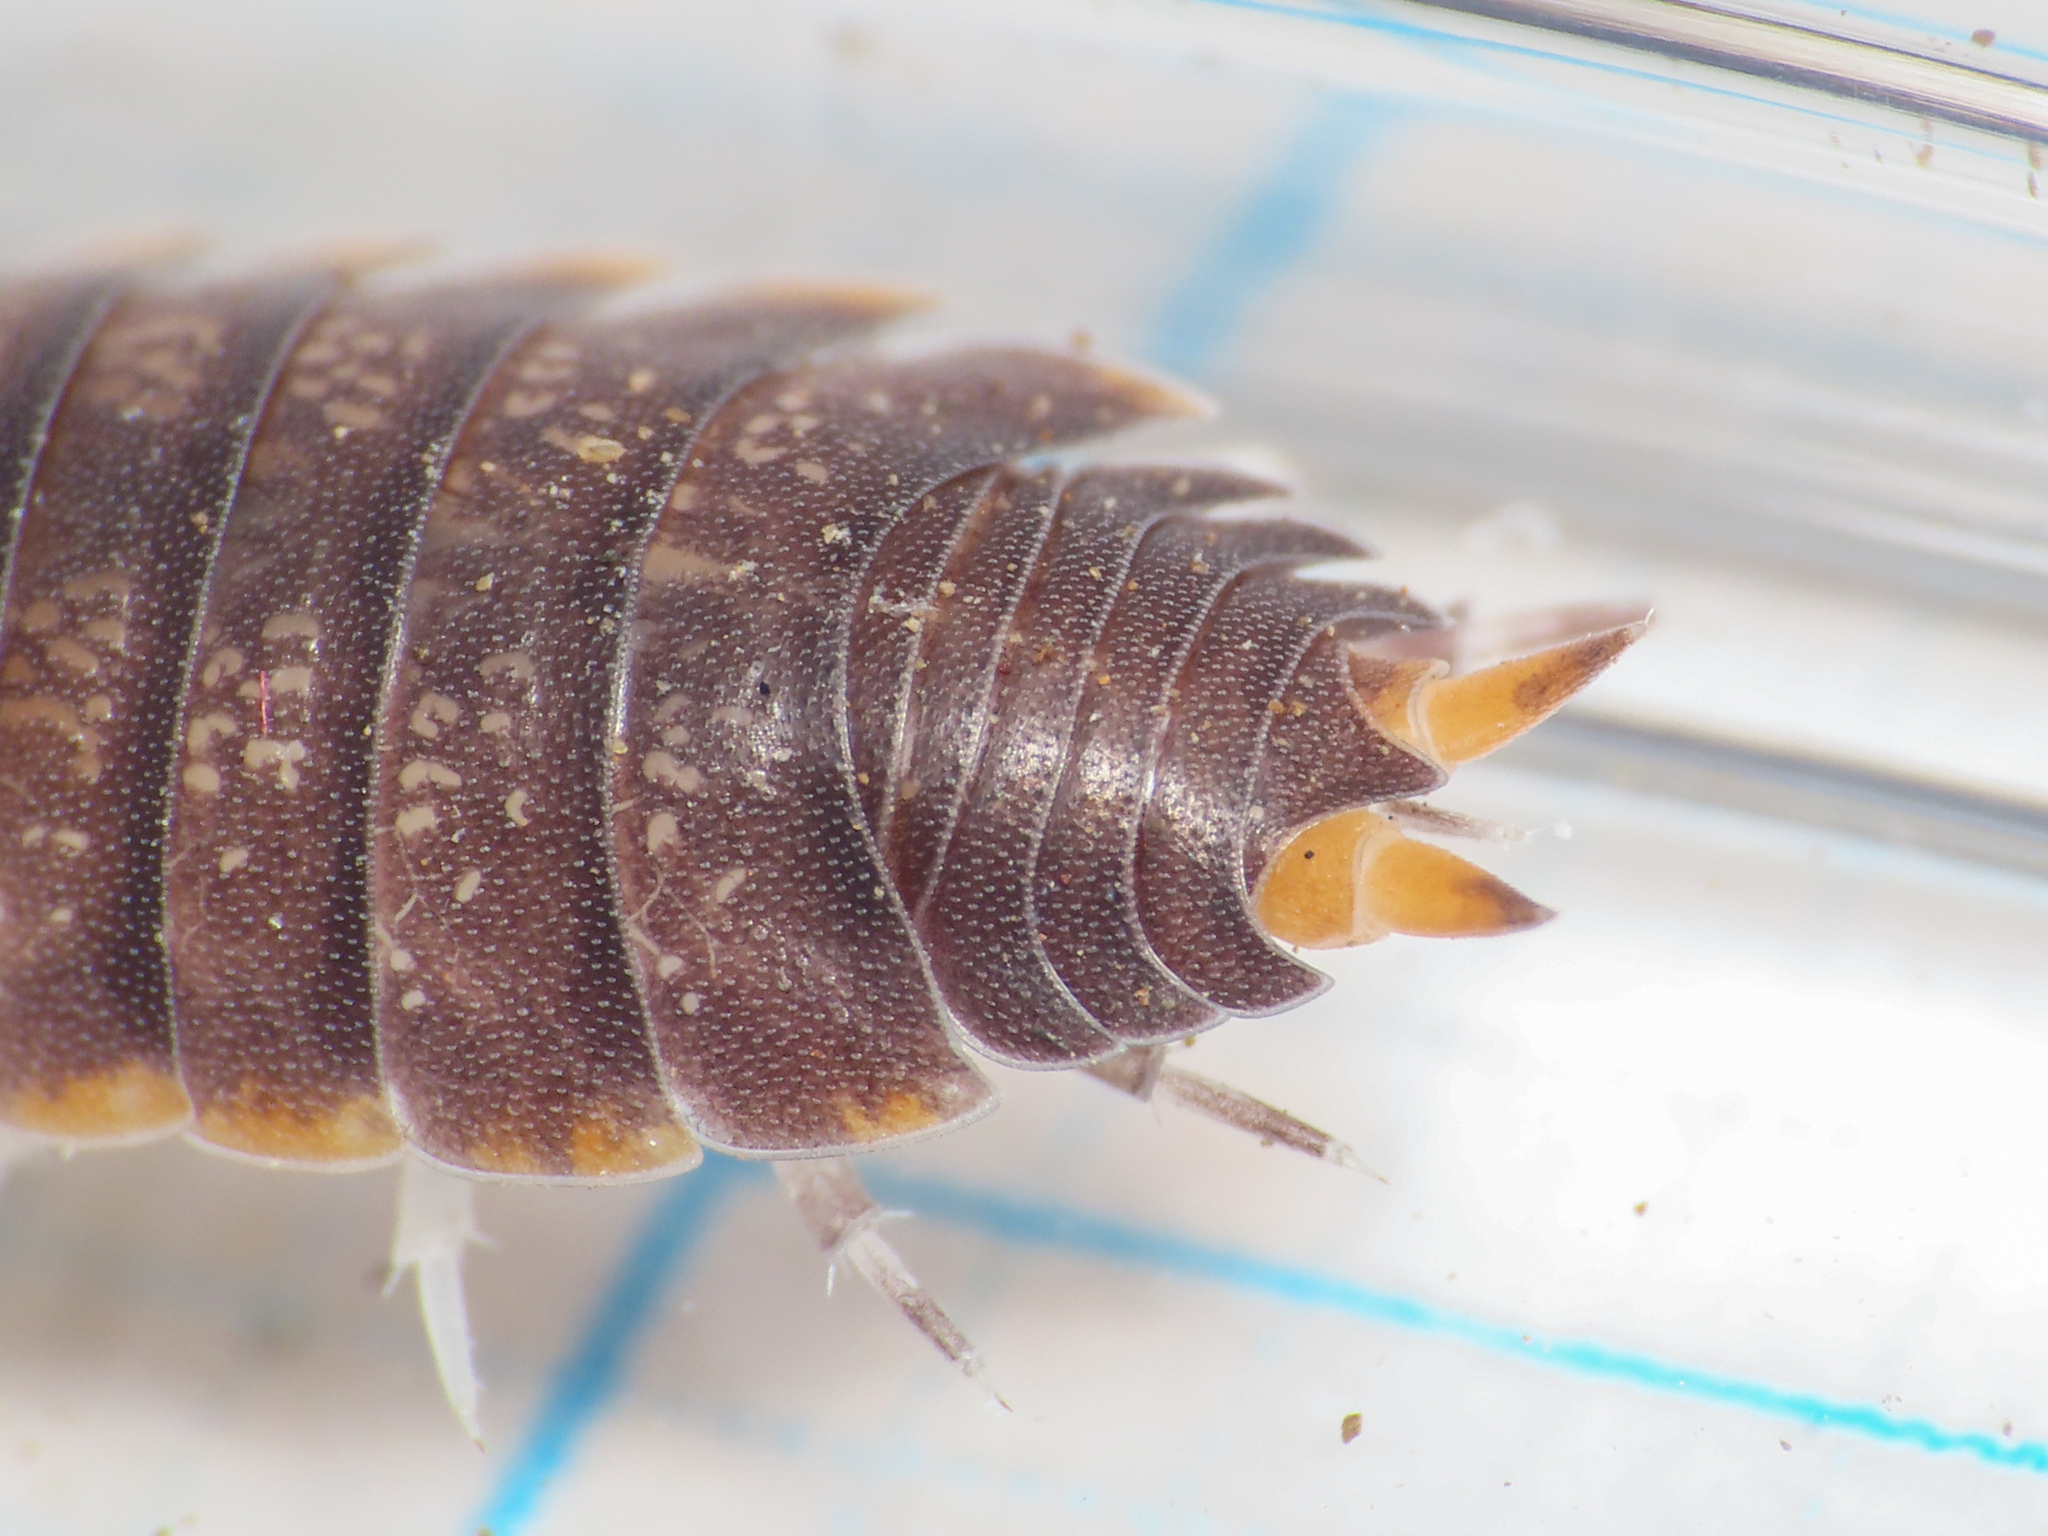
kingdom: Animalia
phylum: Arthropoda
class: Malacostraca
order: Isopoda
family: Porcellionidae
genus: Uramba
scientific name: Uramba triangulifera
